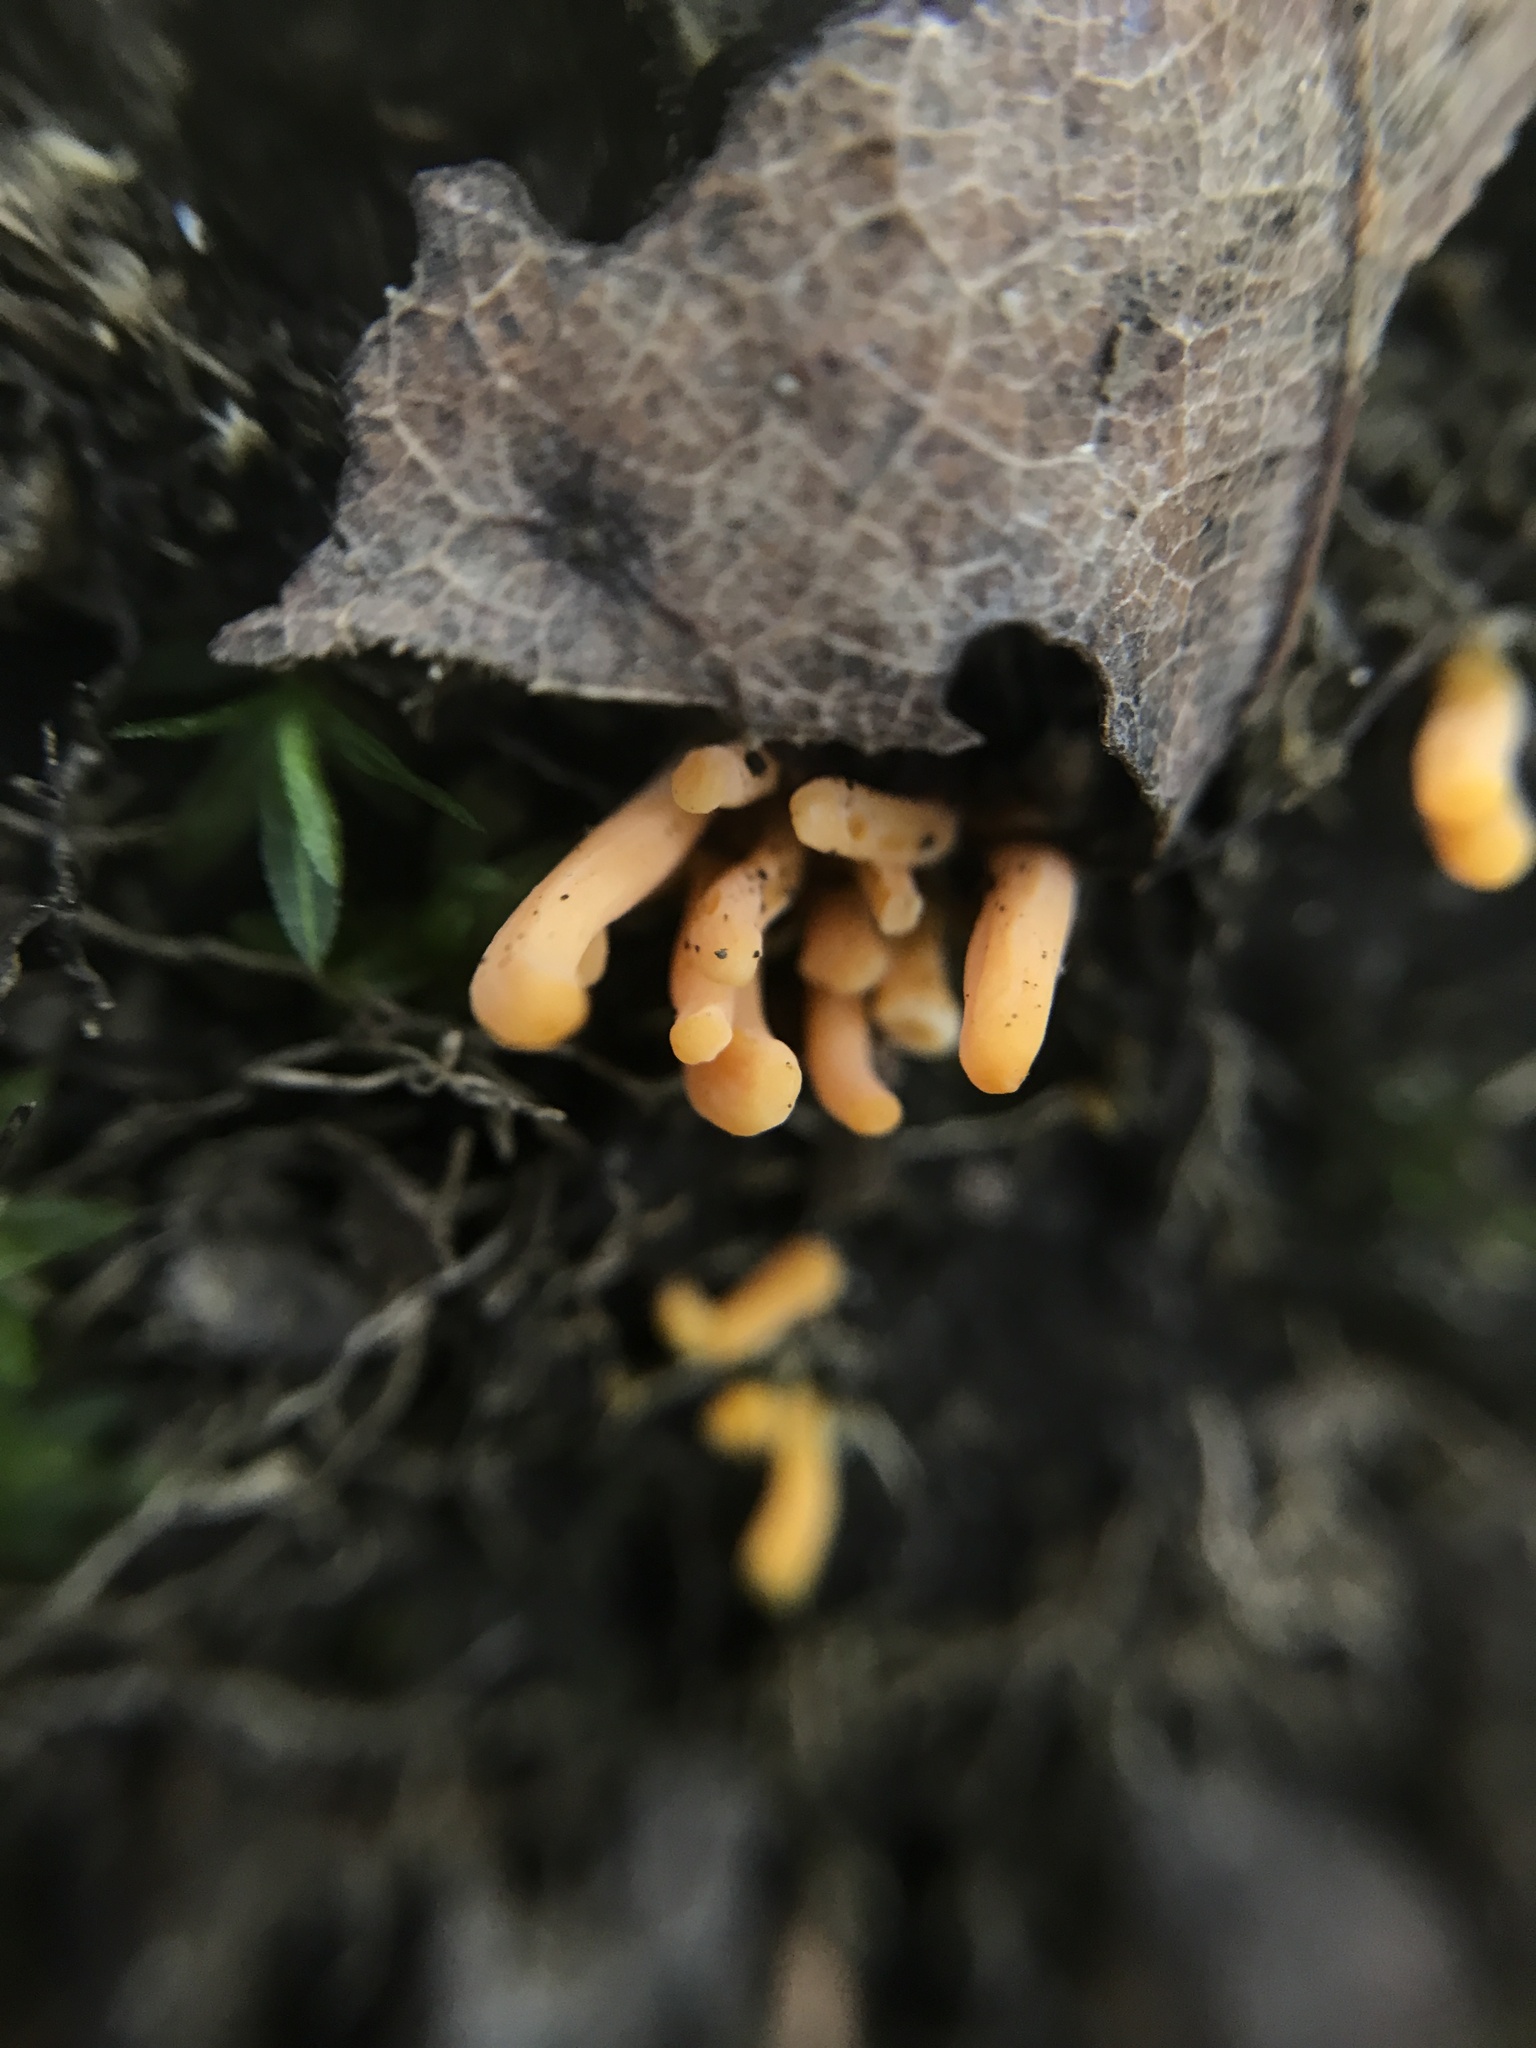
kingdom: Fungi
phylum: Basidiomycota
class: Agaricomycetes
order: Agaricales
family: Clavariaceae
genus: Clavulinopsis
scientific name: Clavulinopsis aurantiocinnabarina
